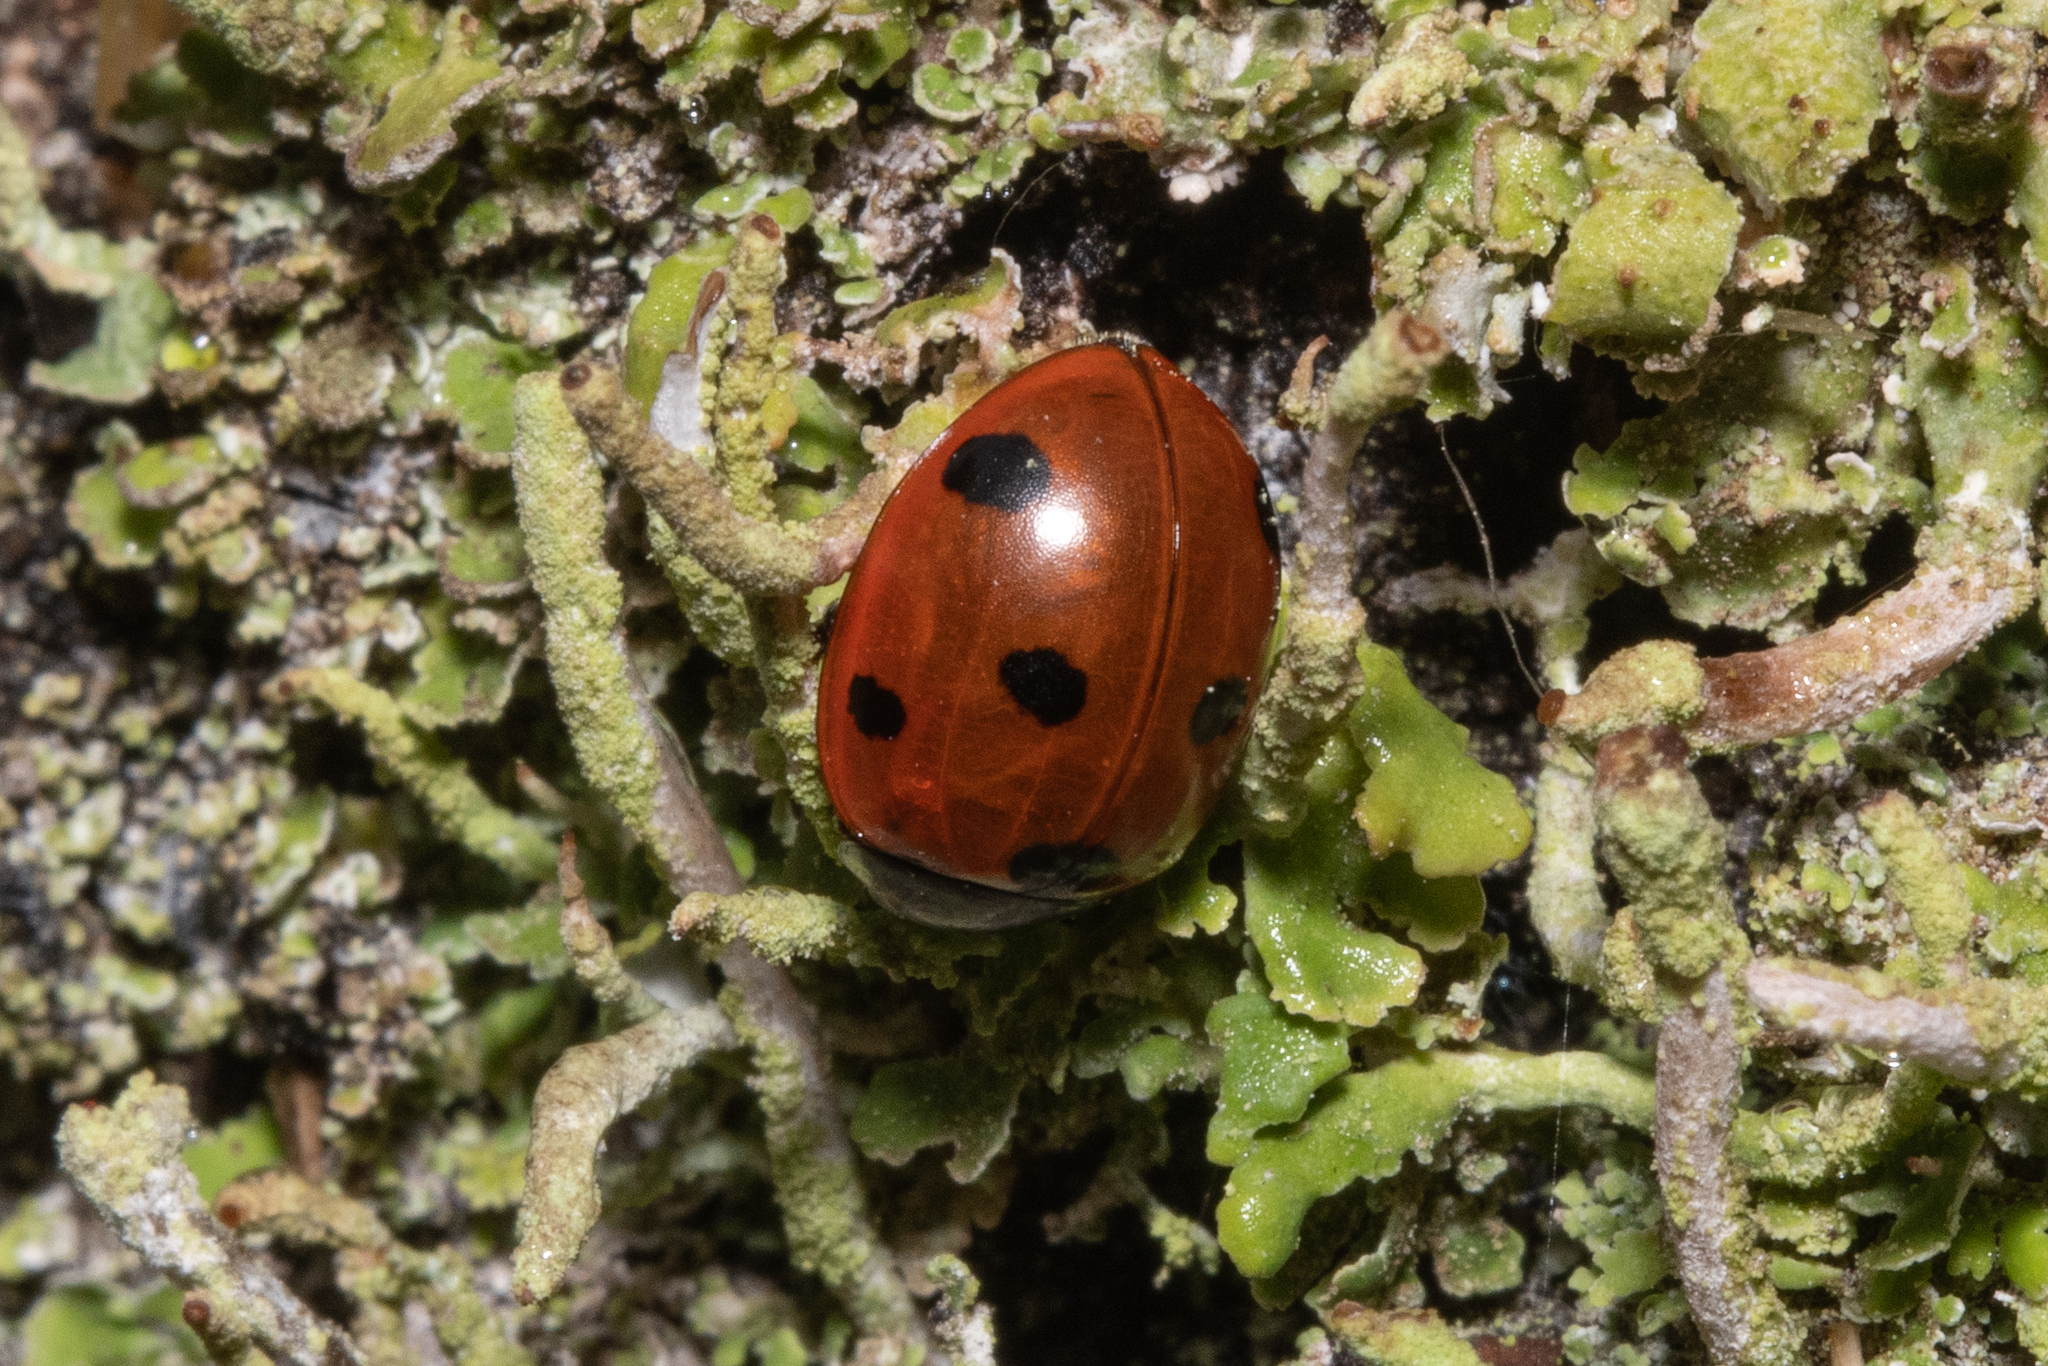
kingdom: Animalia
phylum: Arthropoda
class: Insecta
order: Coleoptera
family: Coccinellidae
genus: Coccinella
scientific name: Coccinella septempunctata
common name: Sevenspotted lady beetle
